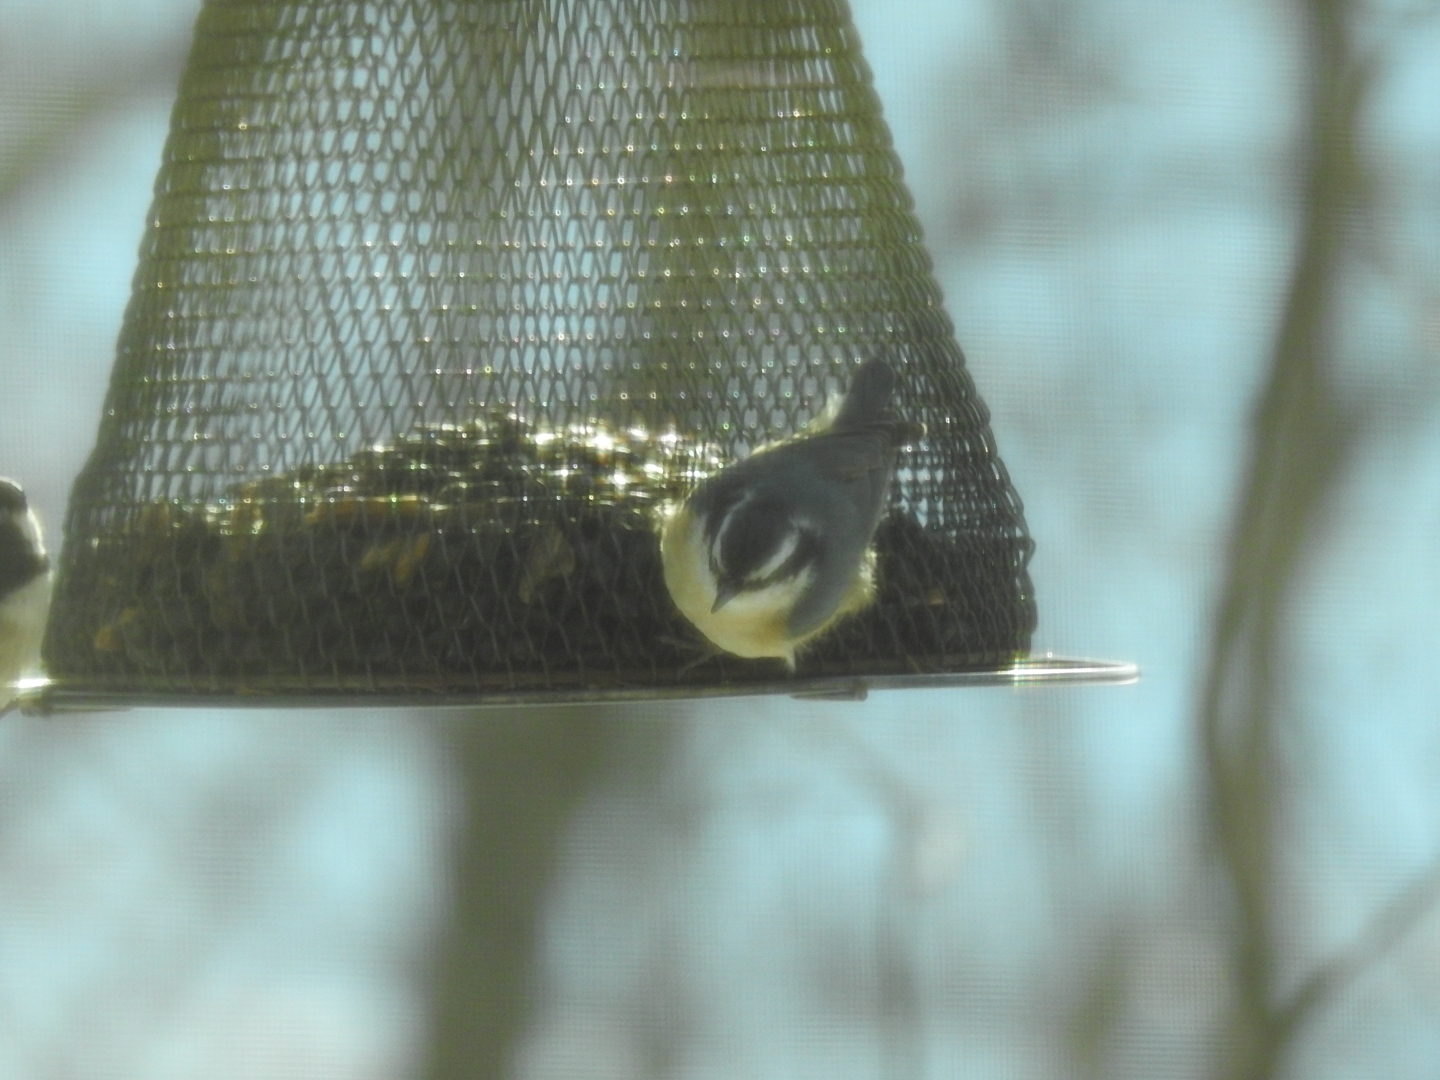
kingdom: Animalia
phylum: Chordata
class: Aves
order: Passeriformes
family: Sittidae
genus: Sitta
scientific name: Sitta canadensis
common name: Red-breasted nuthatch
